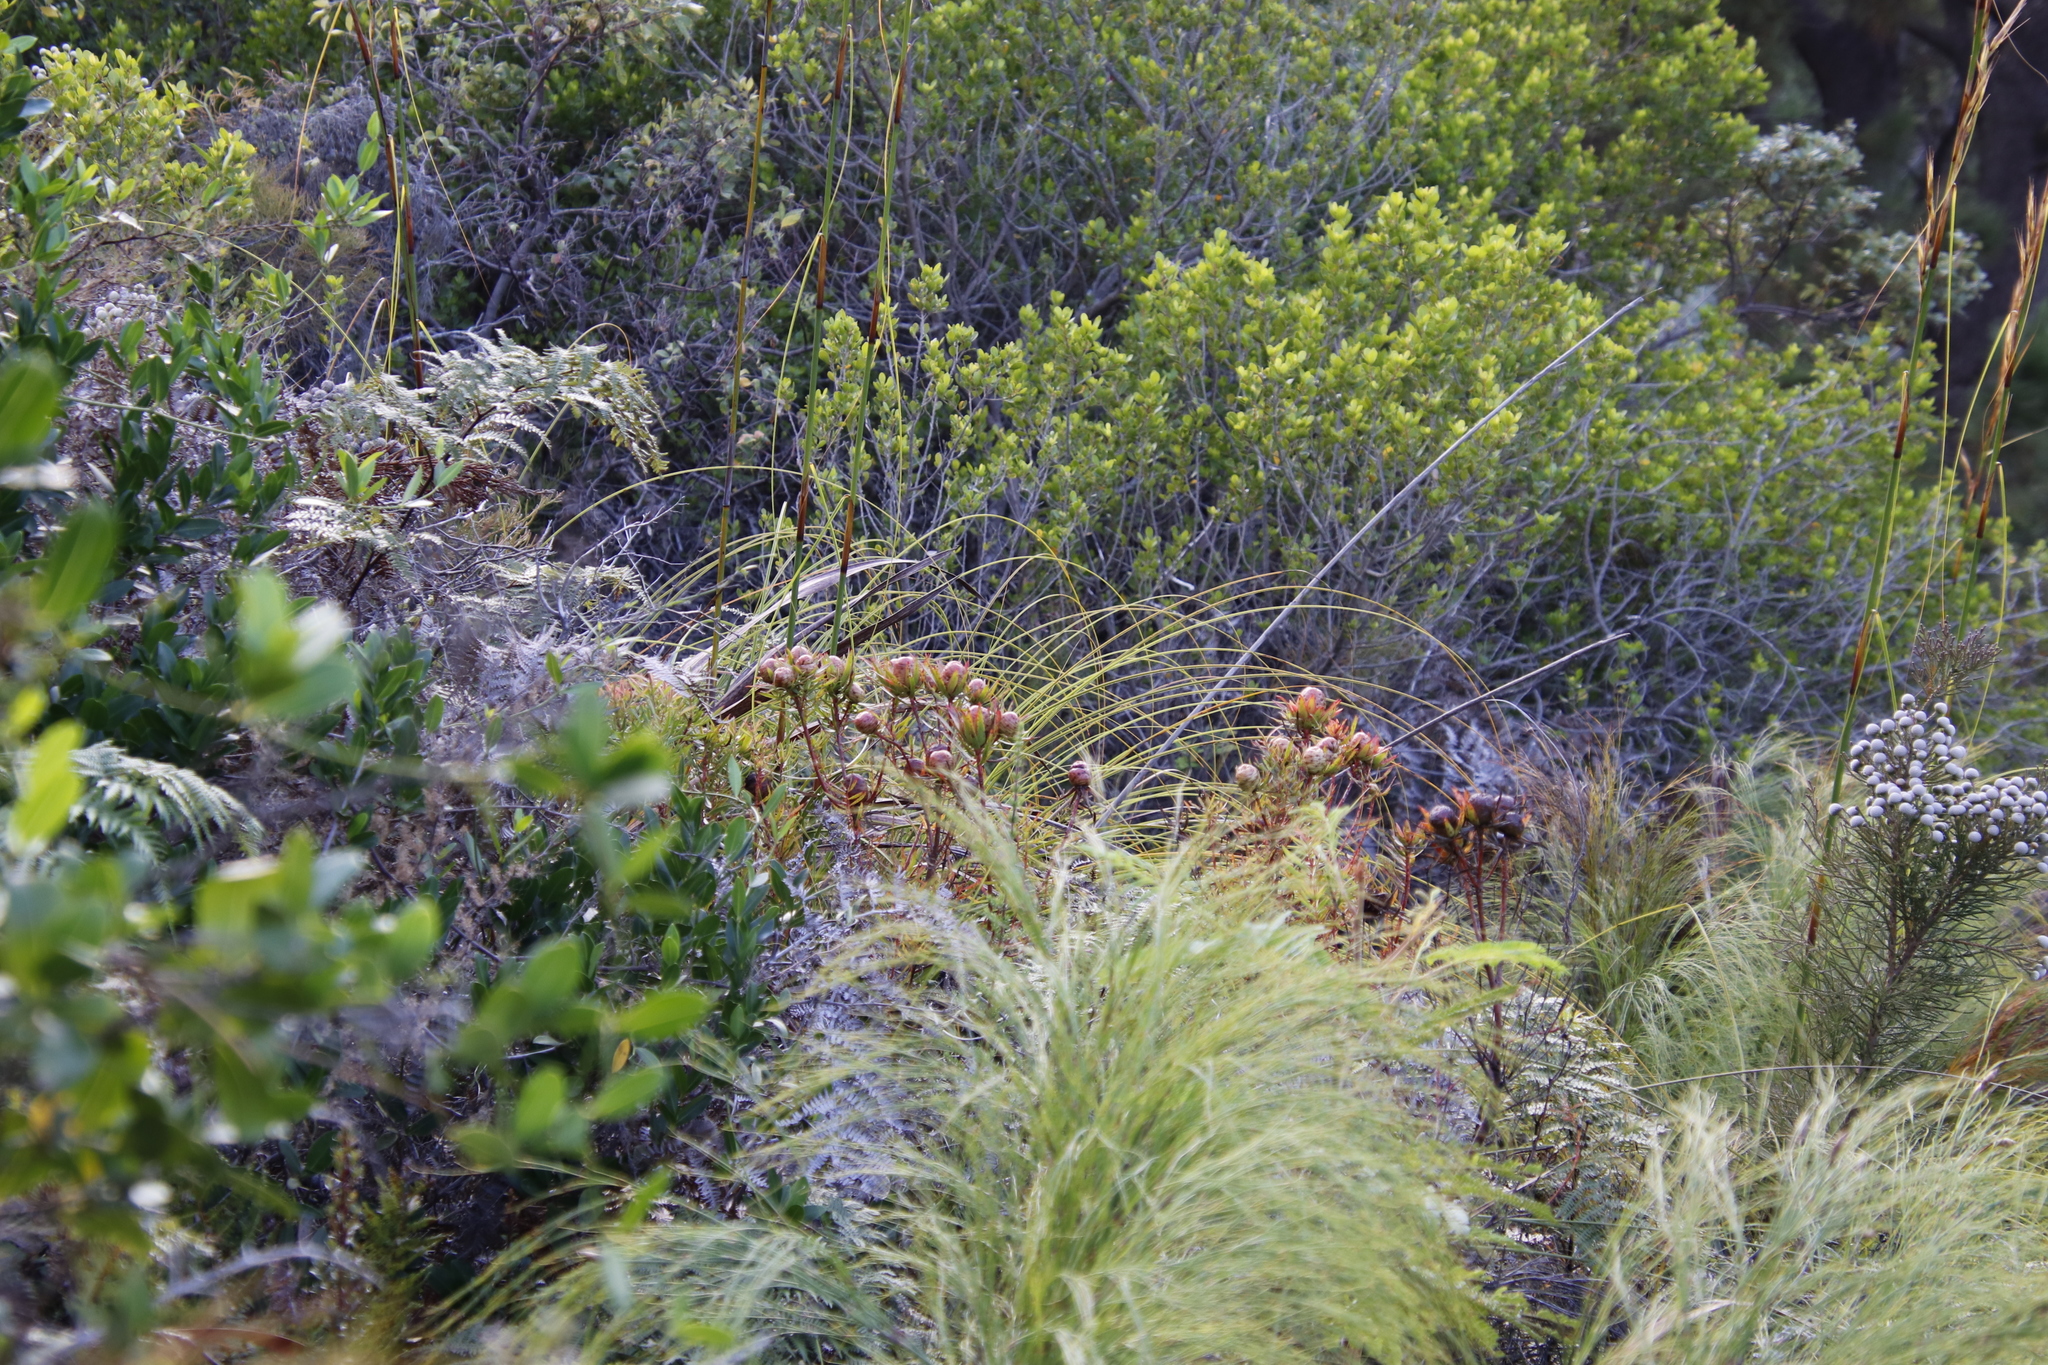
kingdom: Plantae
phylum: Tracheophyta
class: Magnoliopsida
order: Proteales
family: Proteaceae
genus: Leucadendron
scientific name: Leucadendron spissifolium
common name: Spear-leaf conebush
